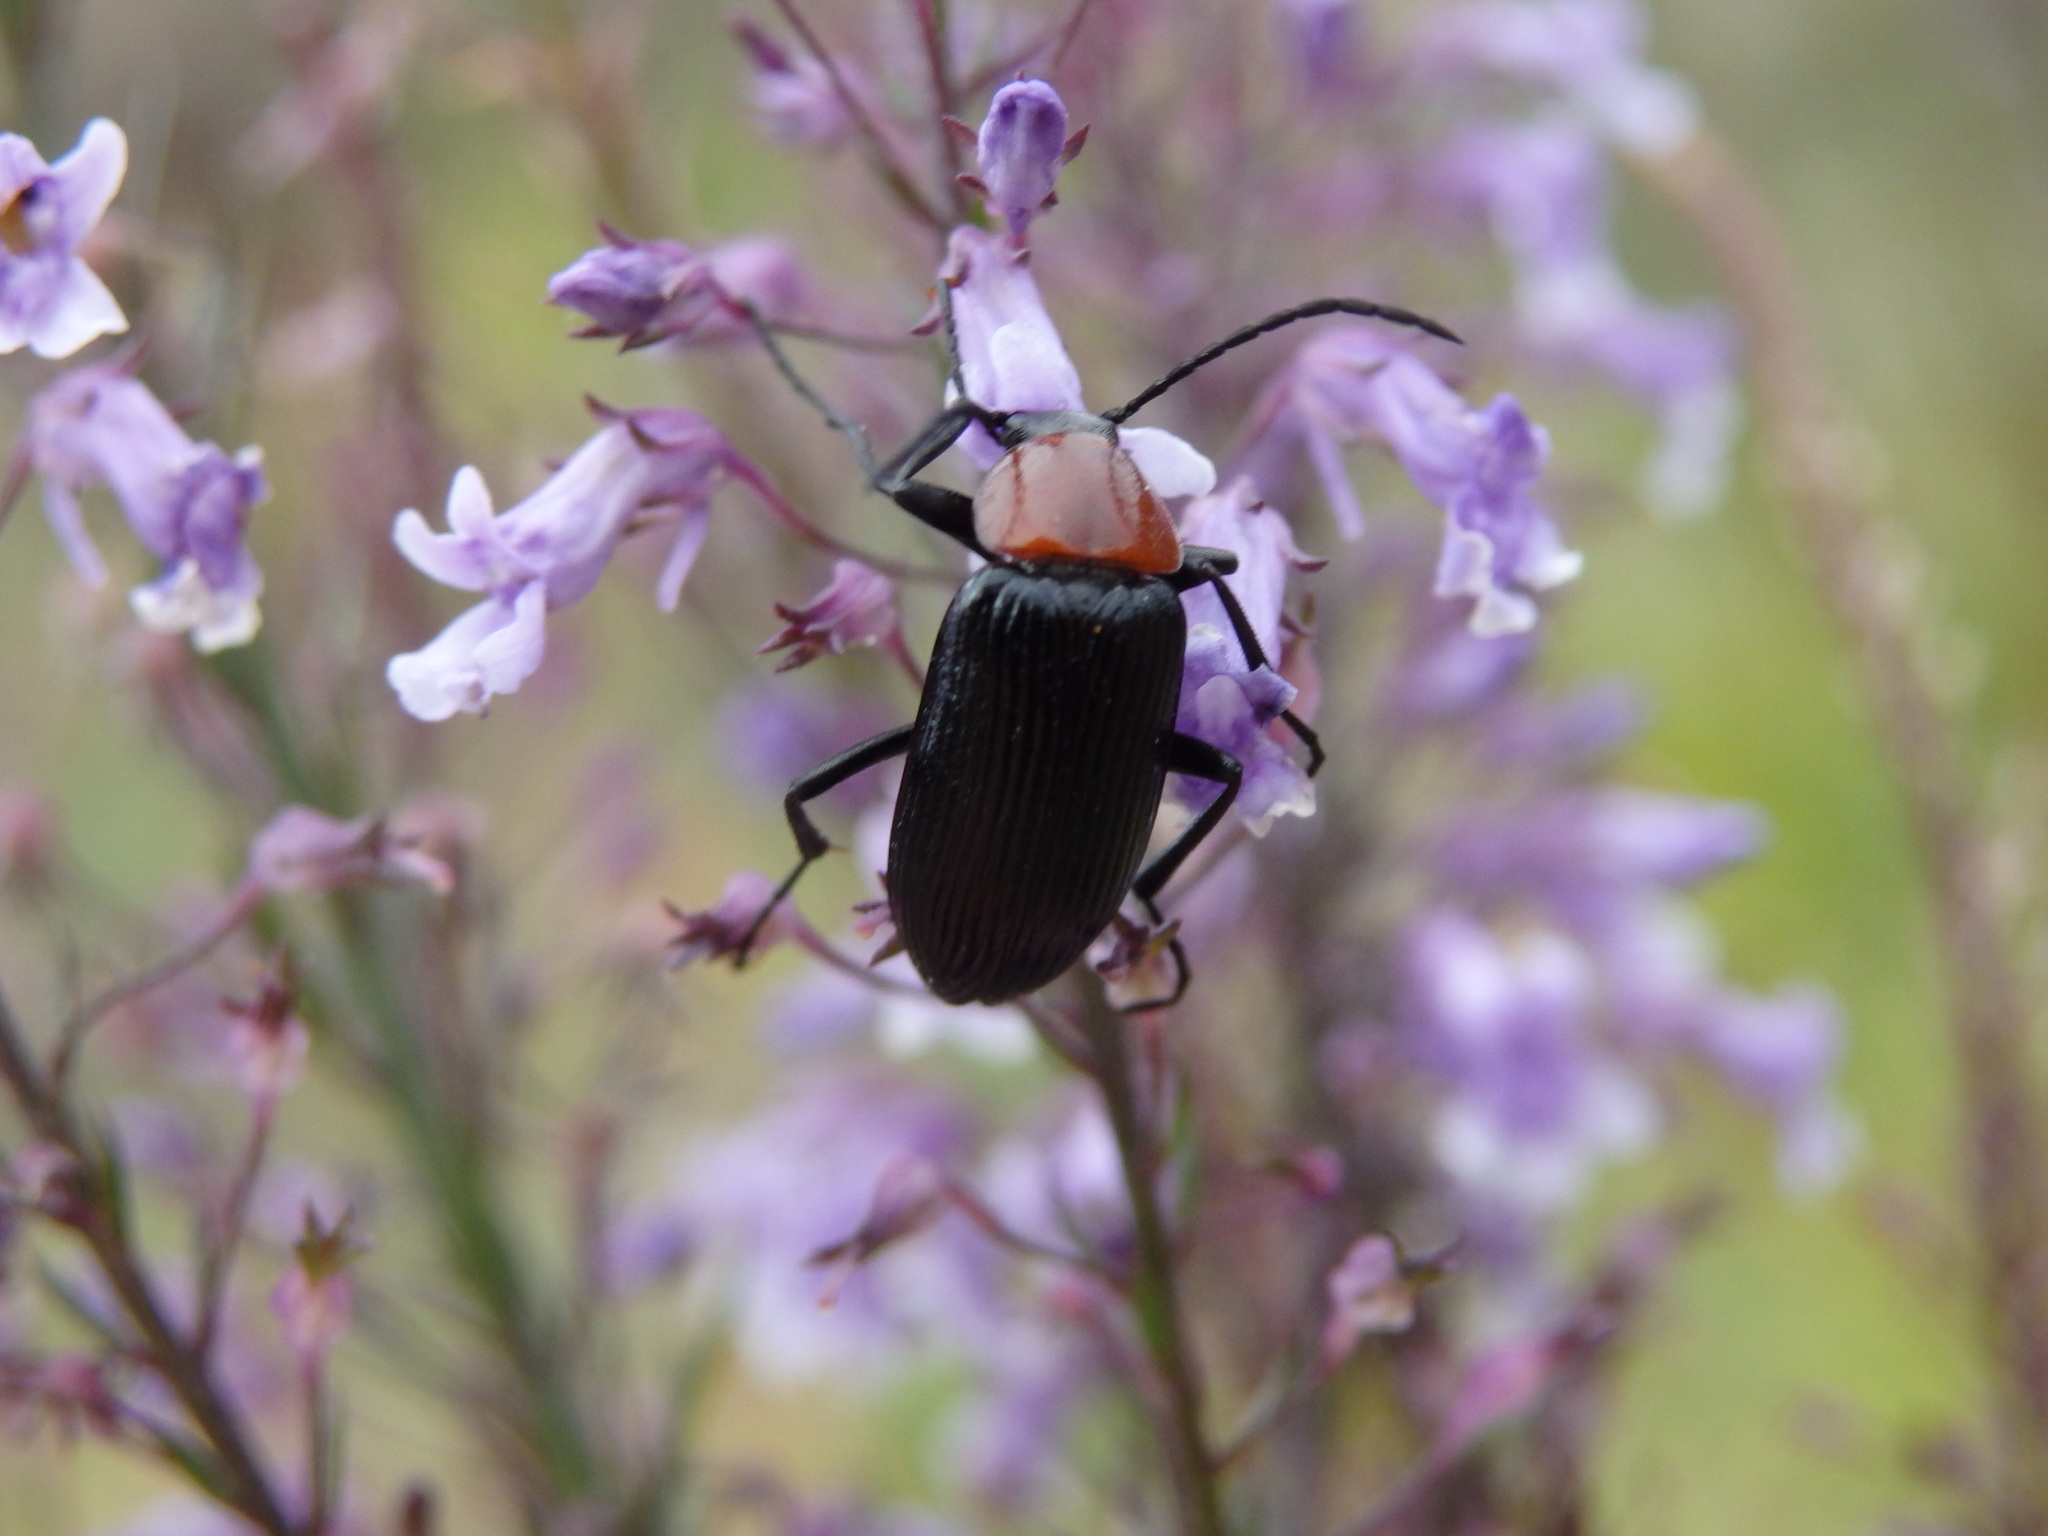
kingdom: Animalia
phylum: Arthropoda
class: Insecta
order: Coleoptera
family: Tenebrionidae
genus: Heliotaurus
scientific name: Heliotaurus ruficollis
